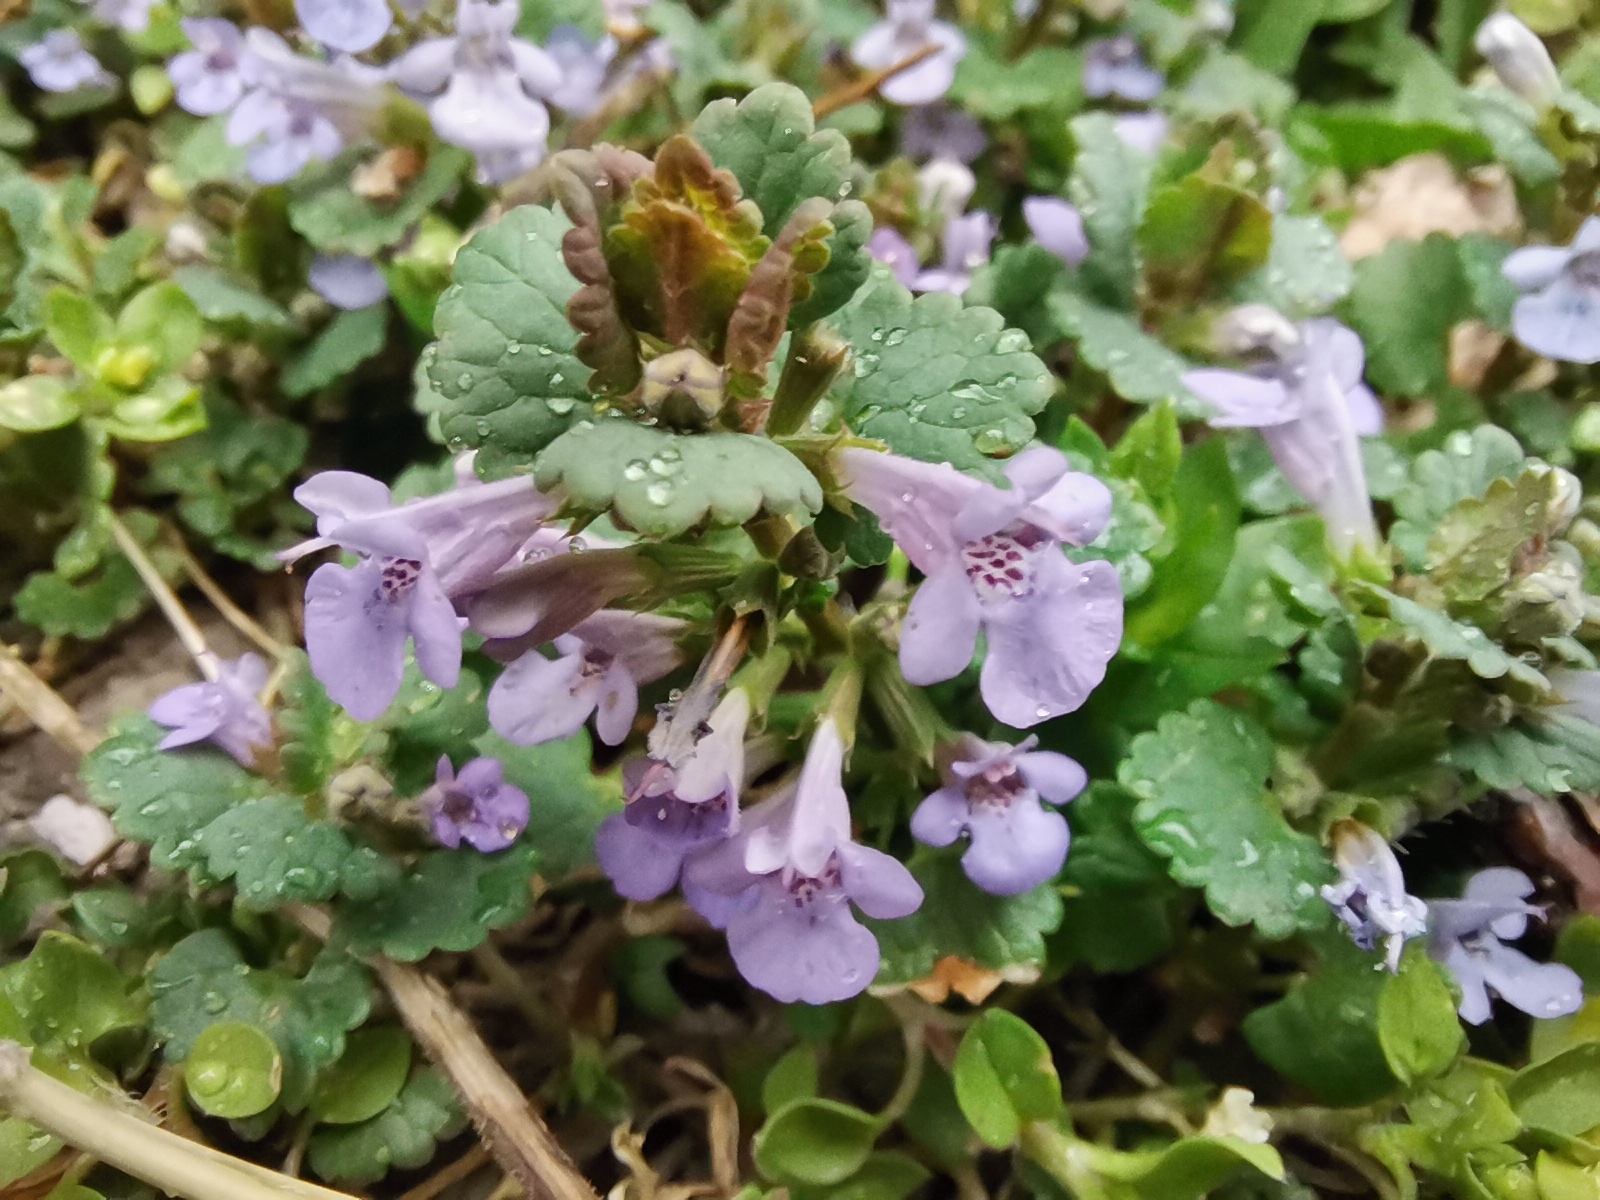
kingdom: Plantae
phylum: Tracheophyta
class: Magnoliopsida
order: Lamiales
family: Lamiaceae
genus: Glechoma
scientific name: Glechoma hederacea
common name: Ground ivy
